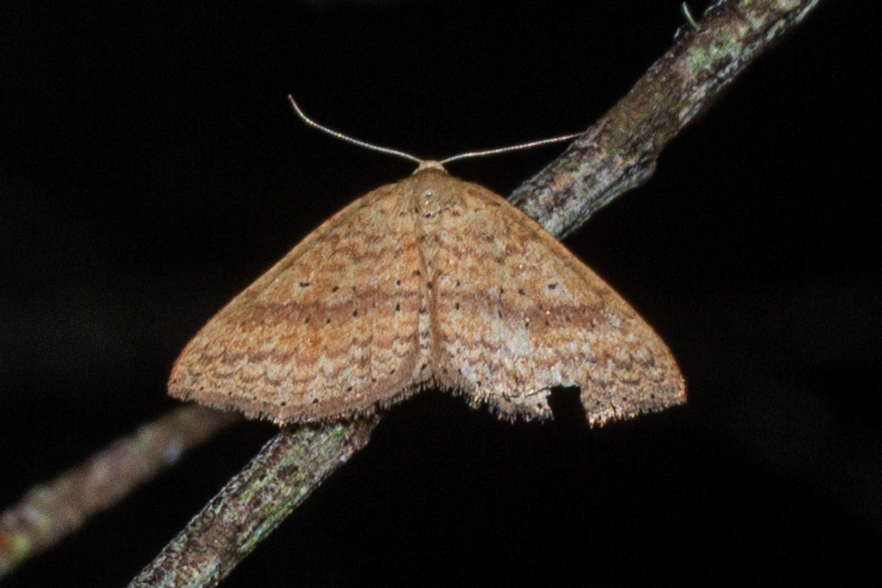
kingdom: Animalia
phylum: Arthropoda
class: Insecta
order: Lepidoptera
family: Geometridae
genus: Epicyme
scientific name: Epicyme rubropunctaria
